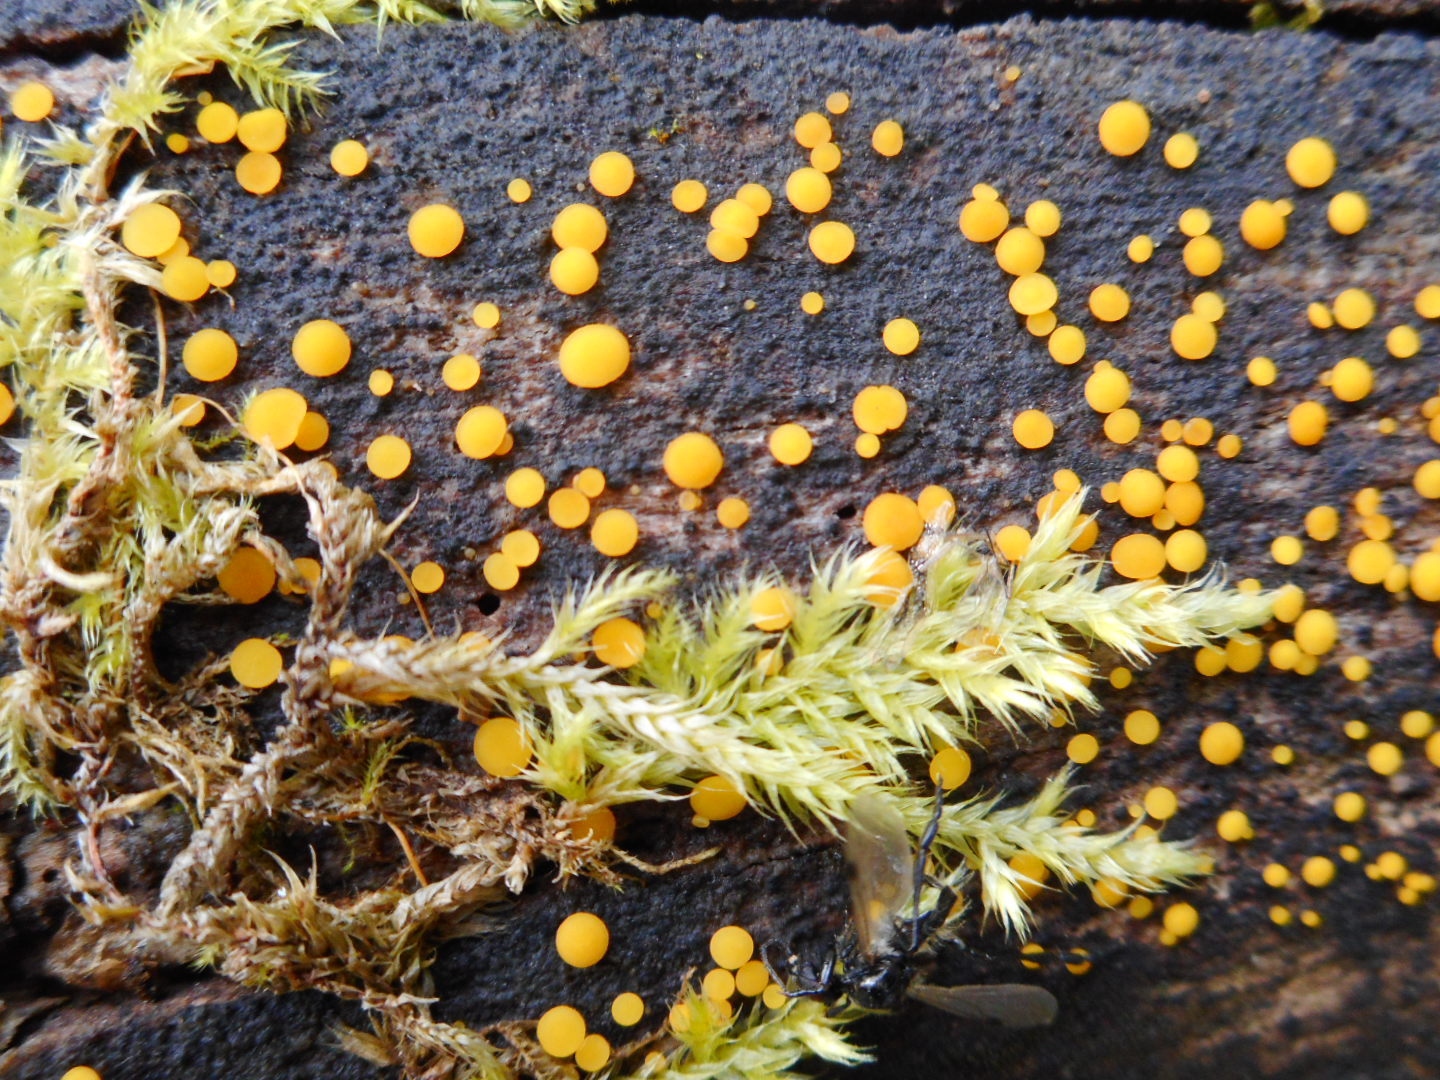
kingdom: Fungi
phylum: Ascomycota
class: Leotiomycetes
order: Helotiales
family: Pezizellaceae
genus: Calycina
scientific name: Calycina citrina
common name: Yellow fairy cups
